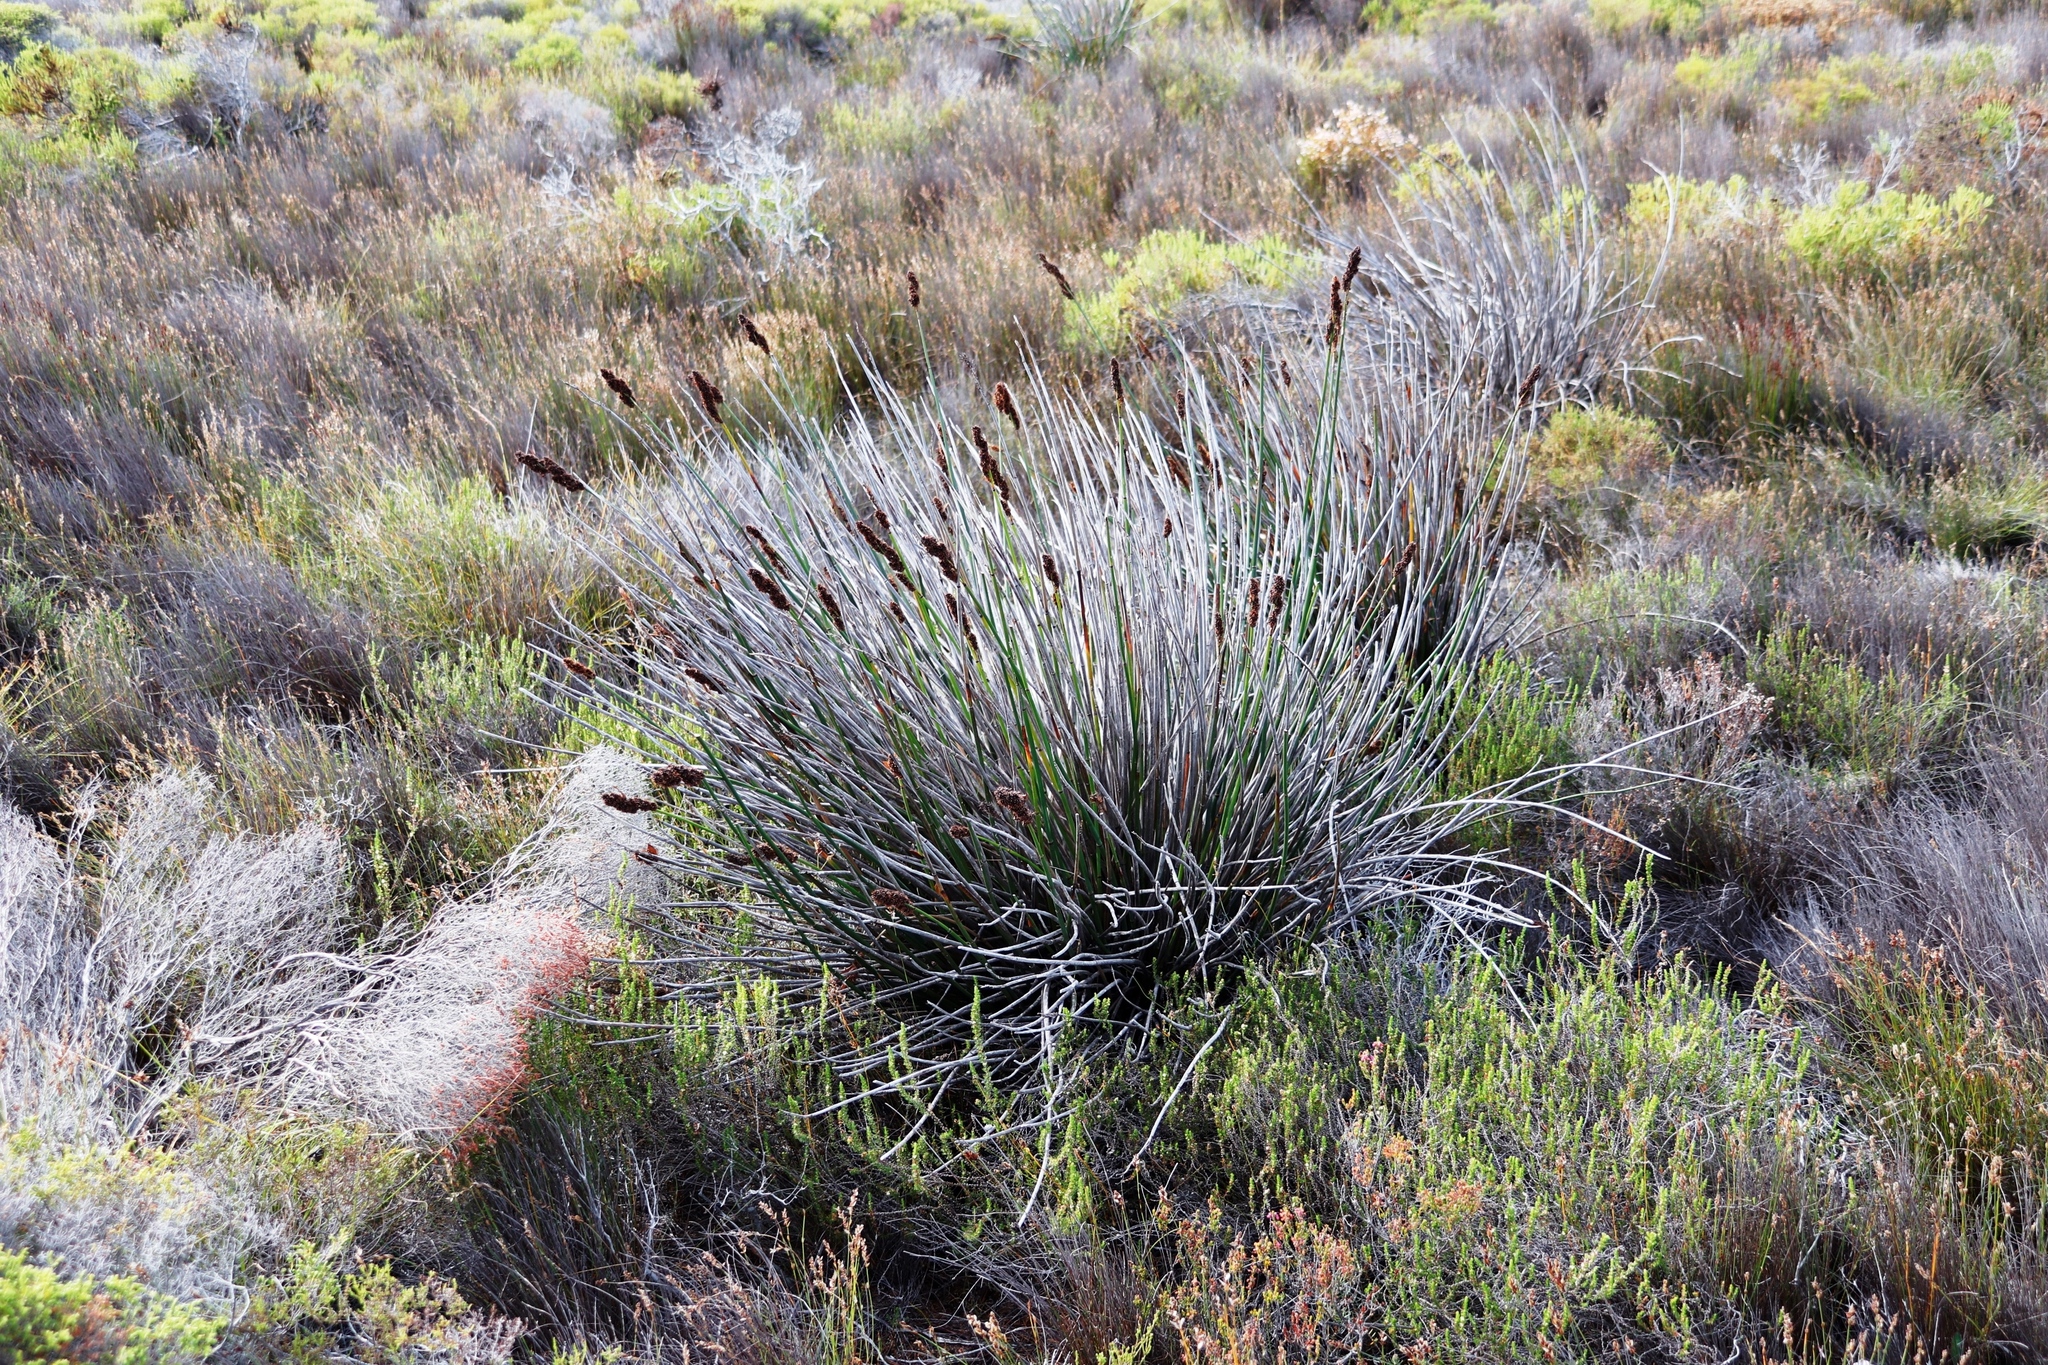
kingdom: Plantae
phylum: Tracheophyta
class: Liliopsida
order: Poales
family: Restionaceae
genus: Elegia
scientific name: Elegia cuspidata
